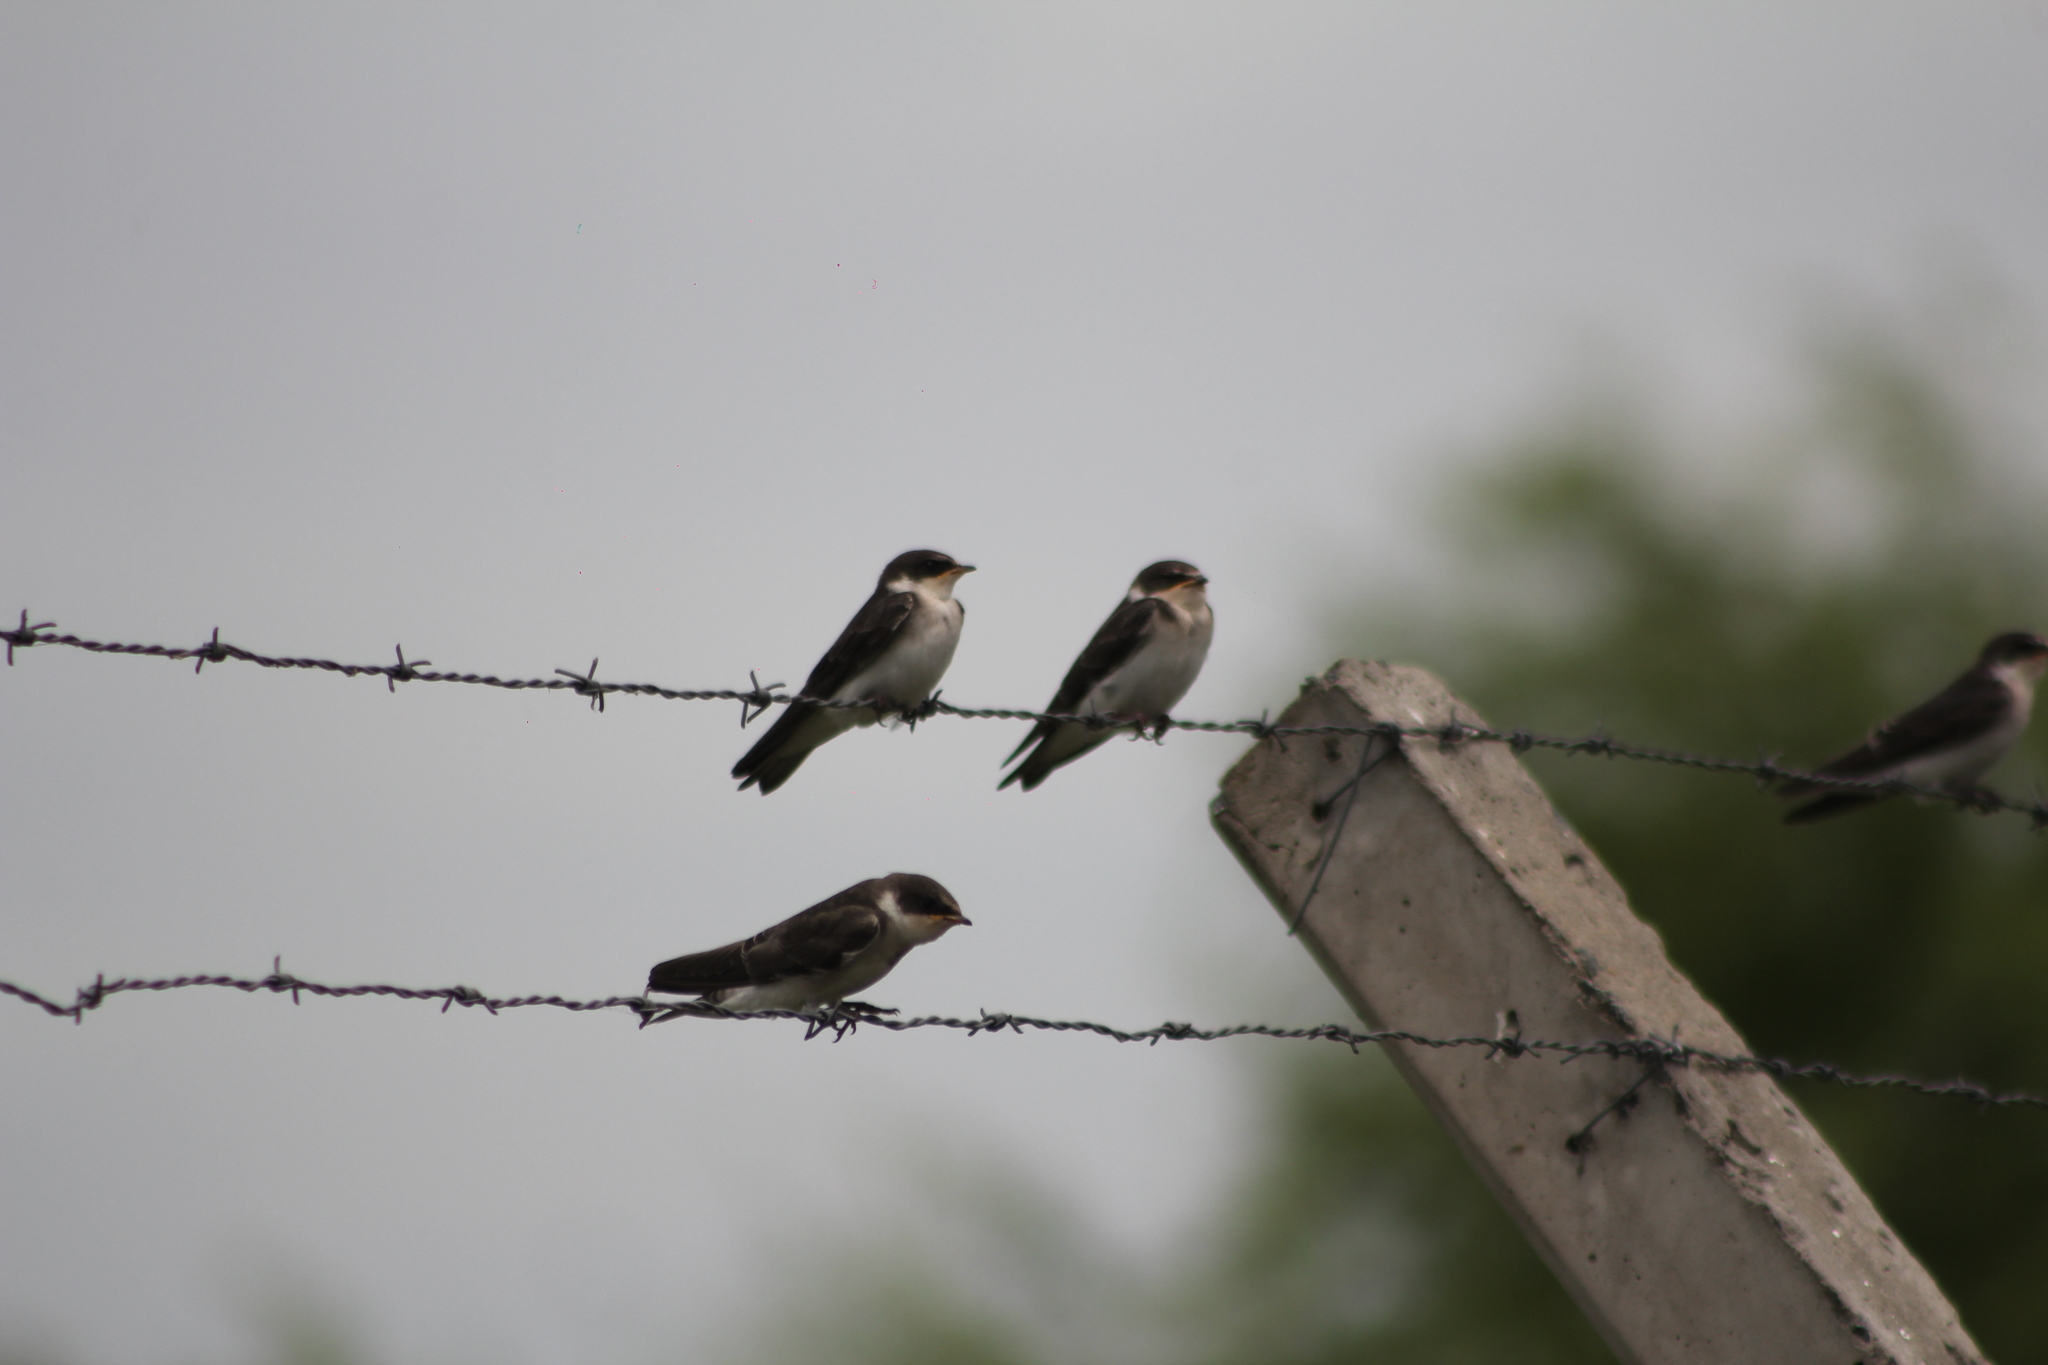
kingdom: Animalia
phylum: Chordata
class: Aves
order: Passeriformes
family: Hirundinidae
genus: Tachycineta
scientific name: Tachycineta leucorrhoa
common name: White-rumped swallow
